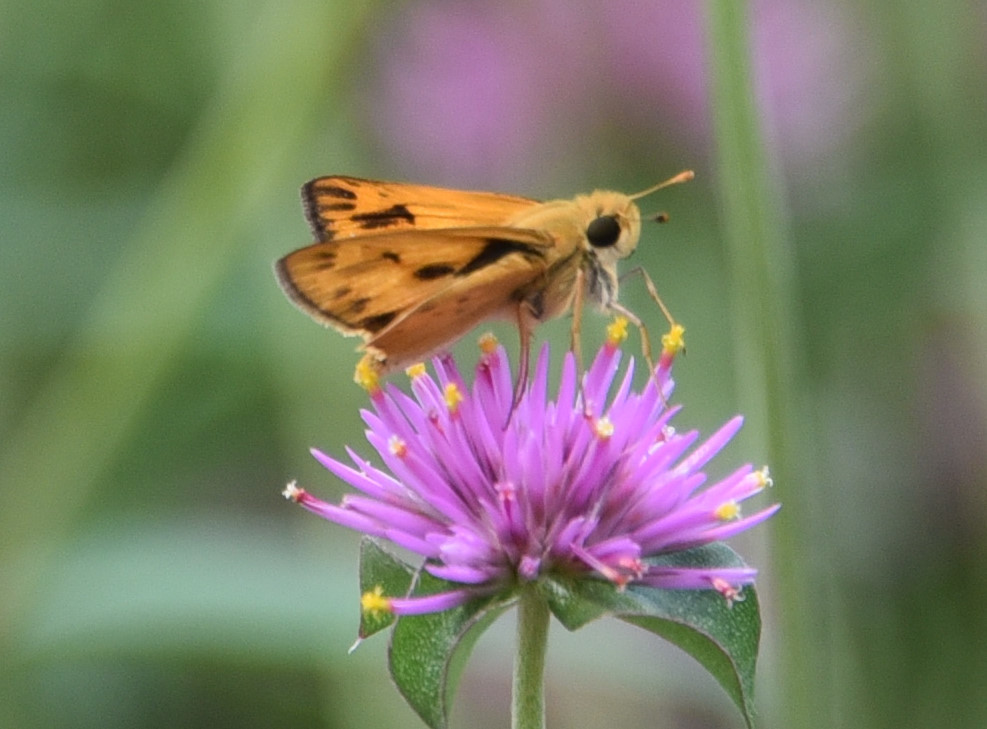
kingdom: Animalia
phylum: Arthropoda
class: Insecta
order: Lepidoptera
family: Hesperiidae
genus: Hylephila
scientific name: Hylephila phyleus
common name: Fiery skipper
